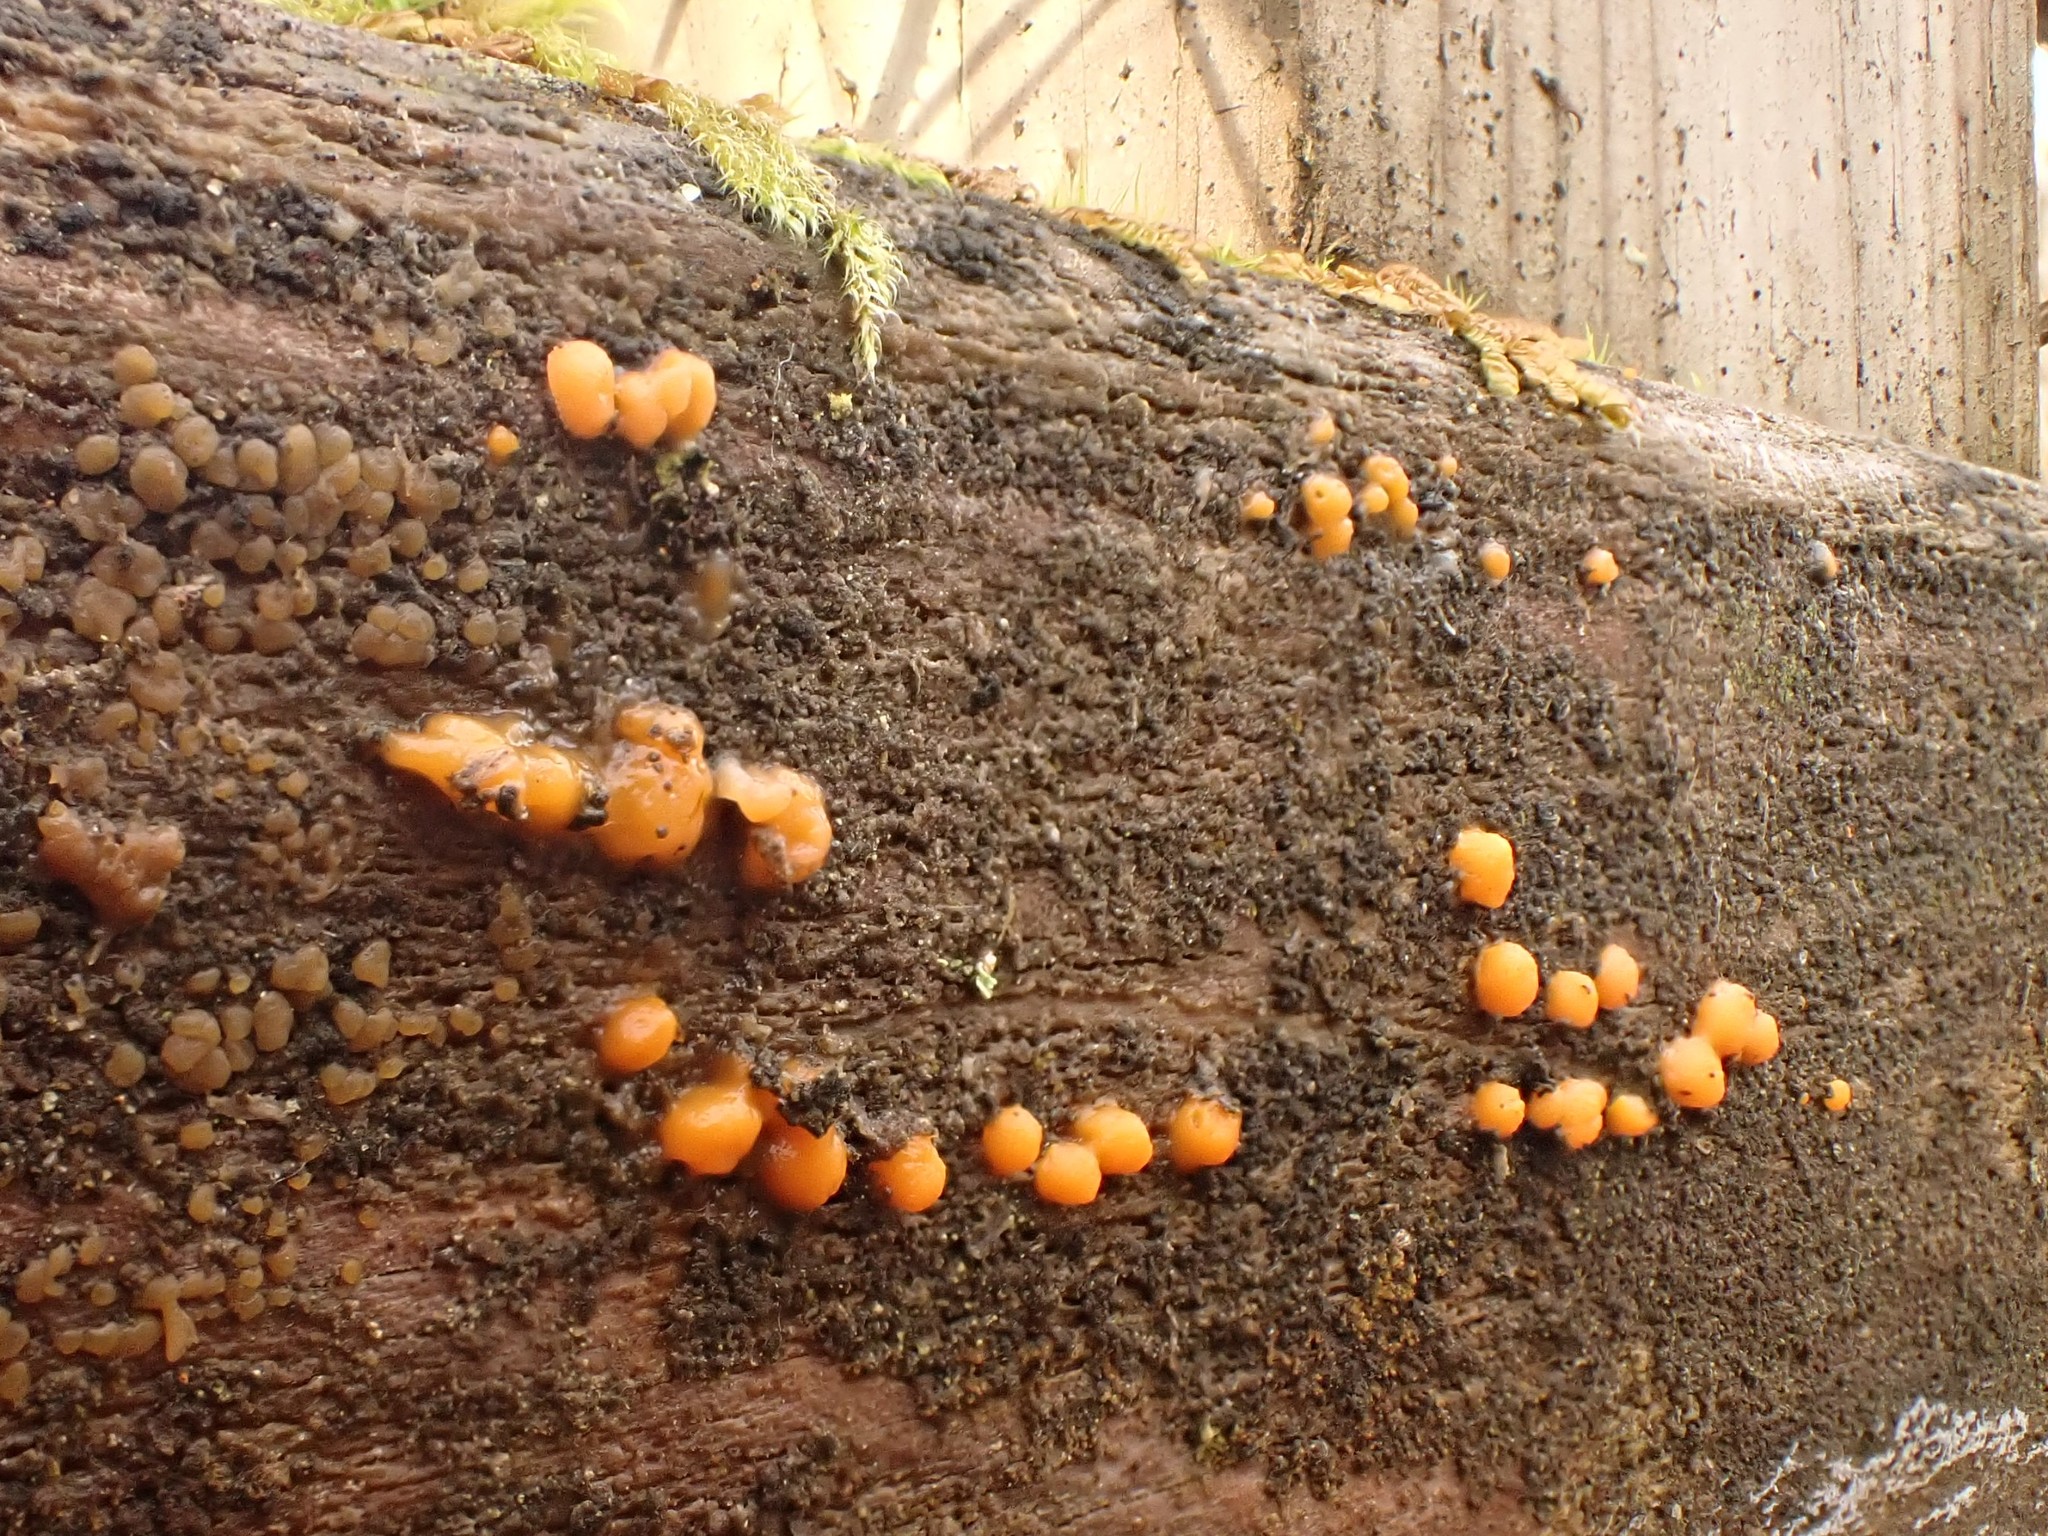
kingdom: Fungi
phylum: Basidiomycota
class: Dacrymycetes
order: Dacrymycetales
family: Dacrymycetaceae
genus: Dacrymyces
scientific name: Dacrymyces stillatus
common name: Common jelly spot
